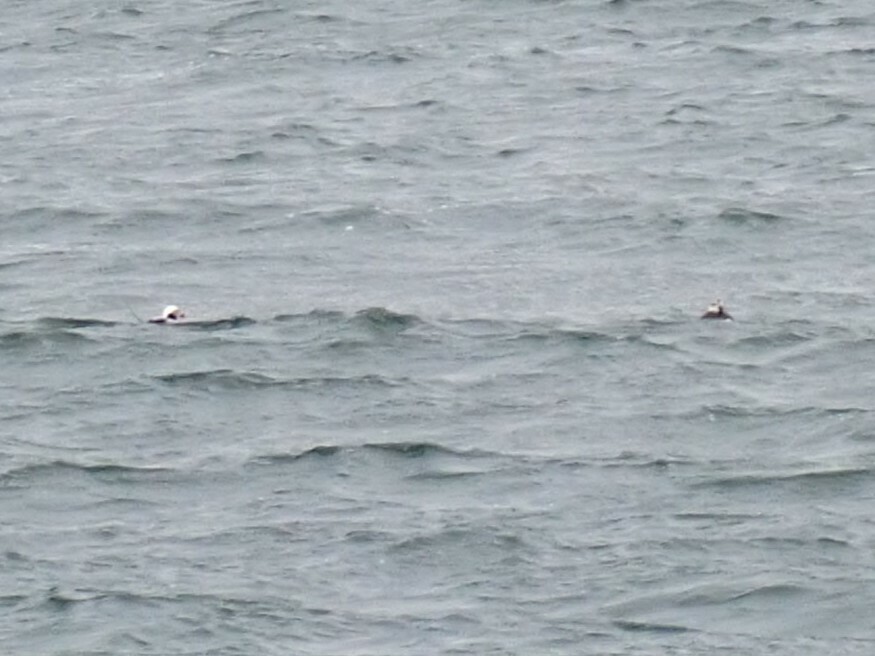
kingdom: Animalia
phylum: Chordata
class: Aves
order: Anseriformes
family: Anatidae
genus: Clangula
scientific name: Clangula hyemalis
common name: Long-tailed duck
